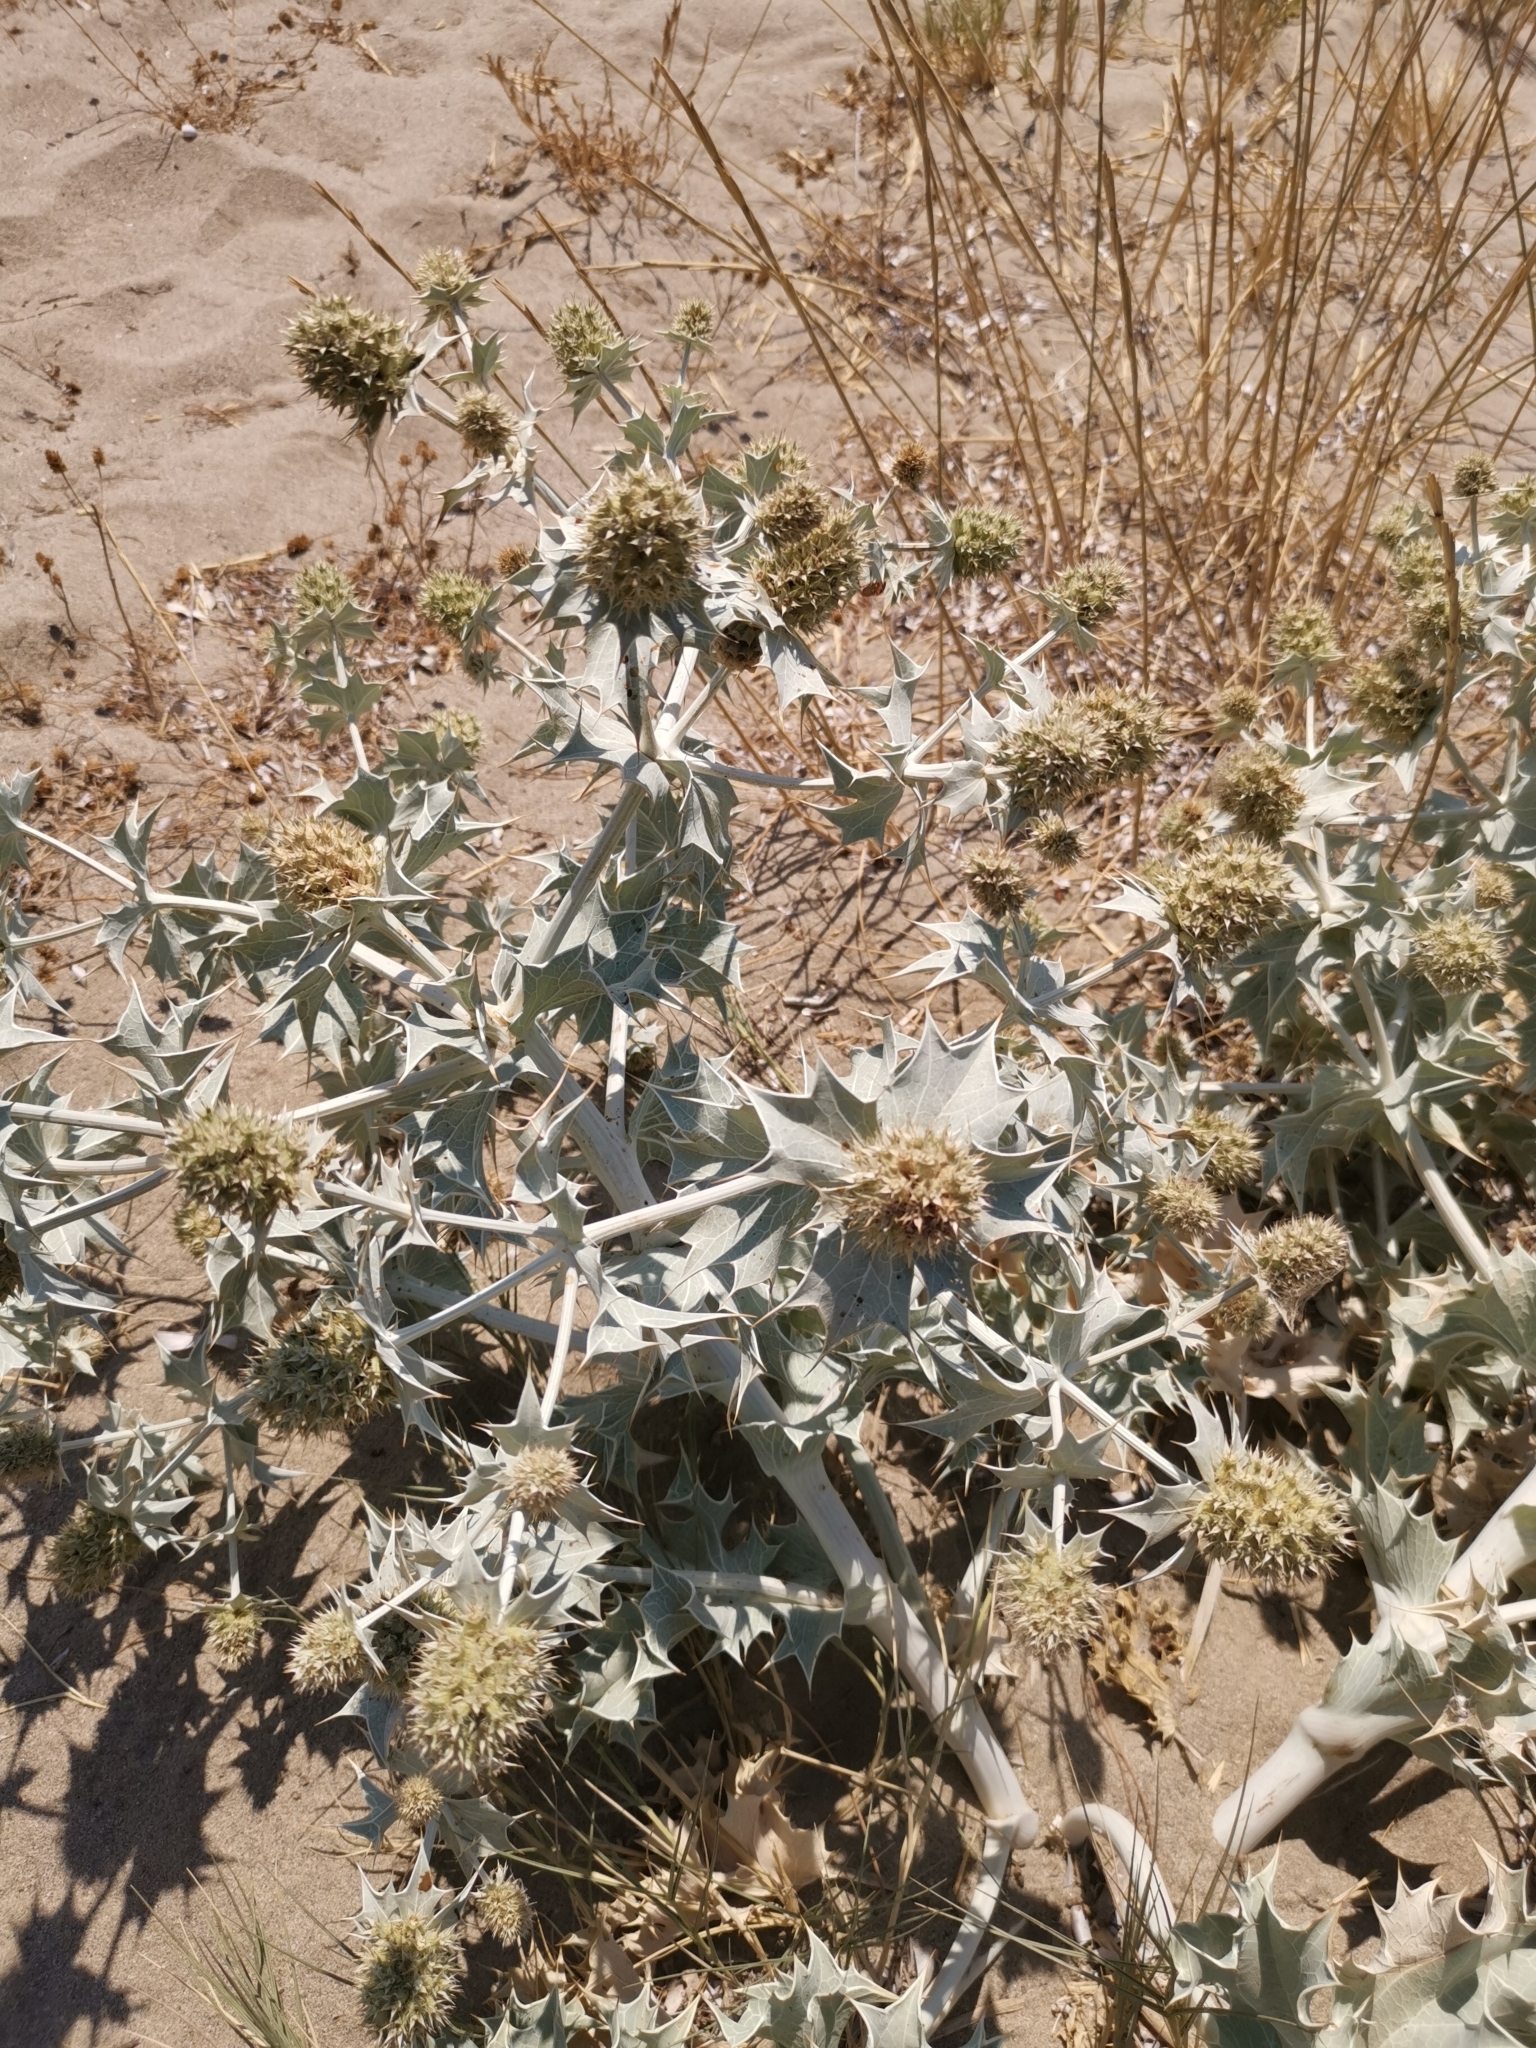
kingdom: Plantae
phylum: Tracheophyta
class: Magnoliopsida
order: Apiales
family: Apiaceae
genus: Eryngium
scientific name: Eryngium maritimum
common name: Sea-holly
